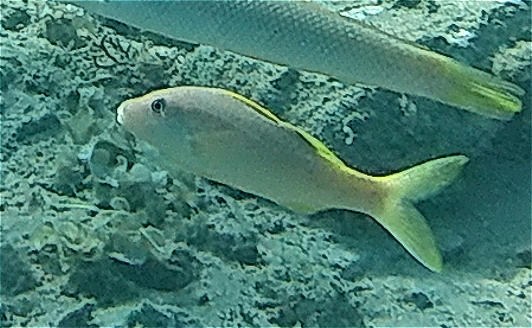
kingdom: Animalia
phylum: Chordata
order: Perciformes
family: Mullidae
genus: Parupeneus
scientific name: Parupeneus cyclostomus
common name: Goldsaddle goatfish
